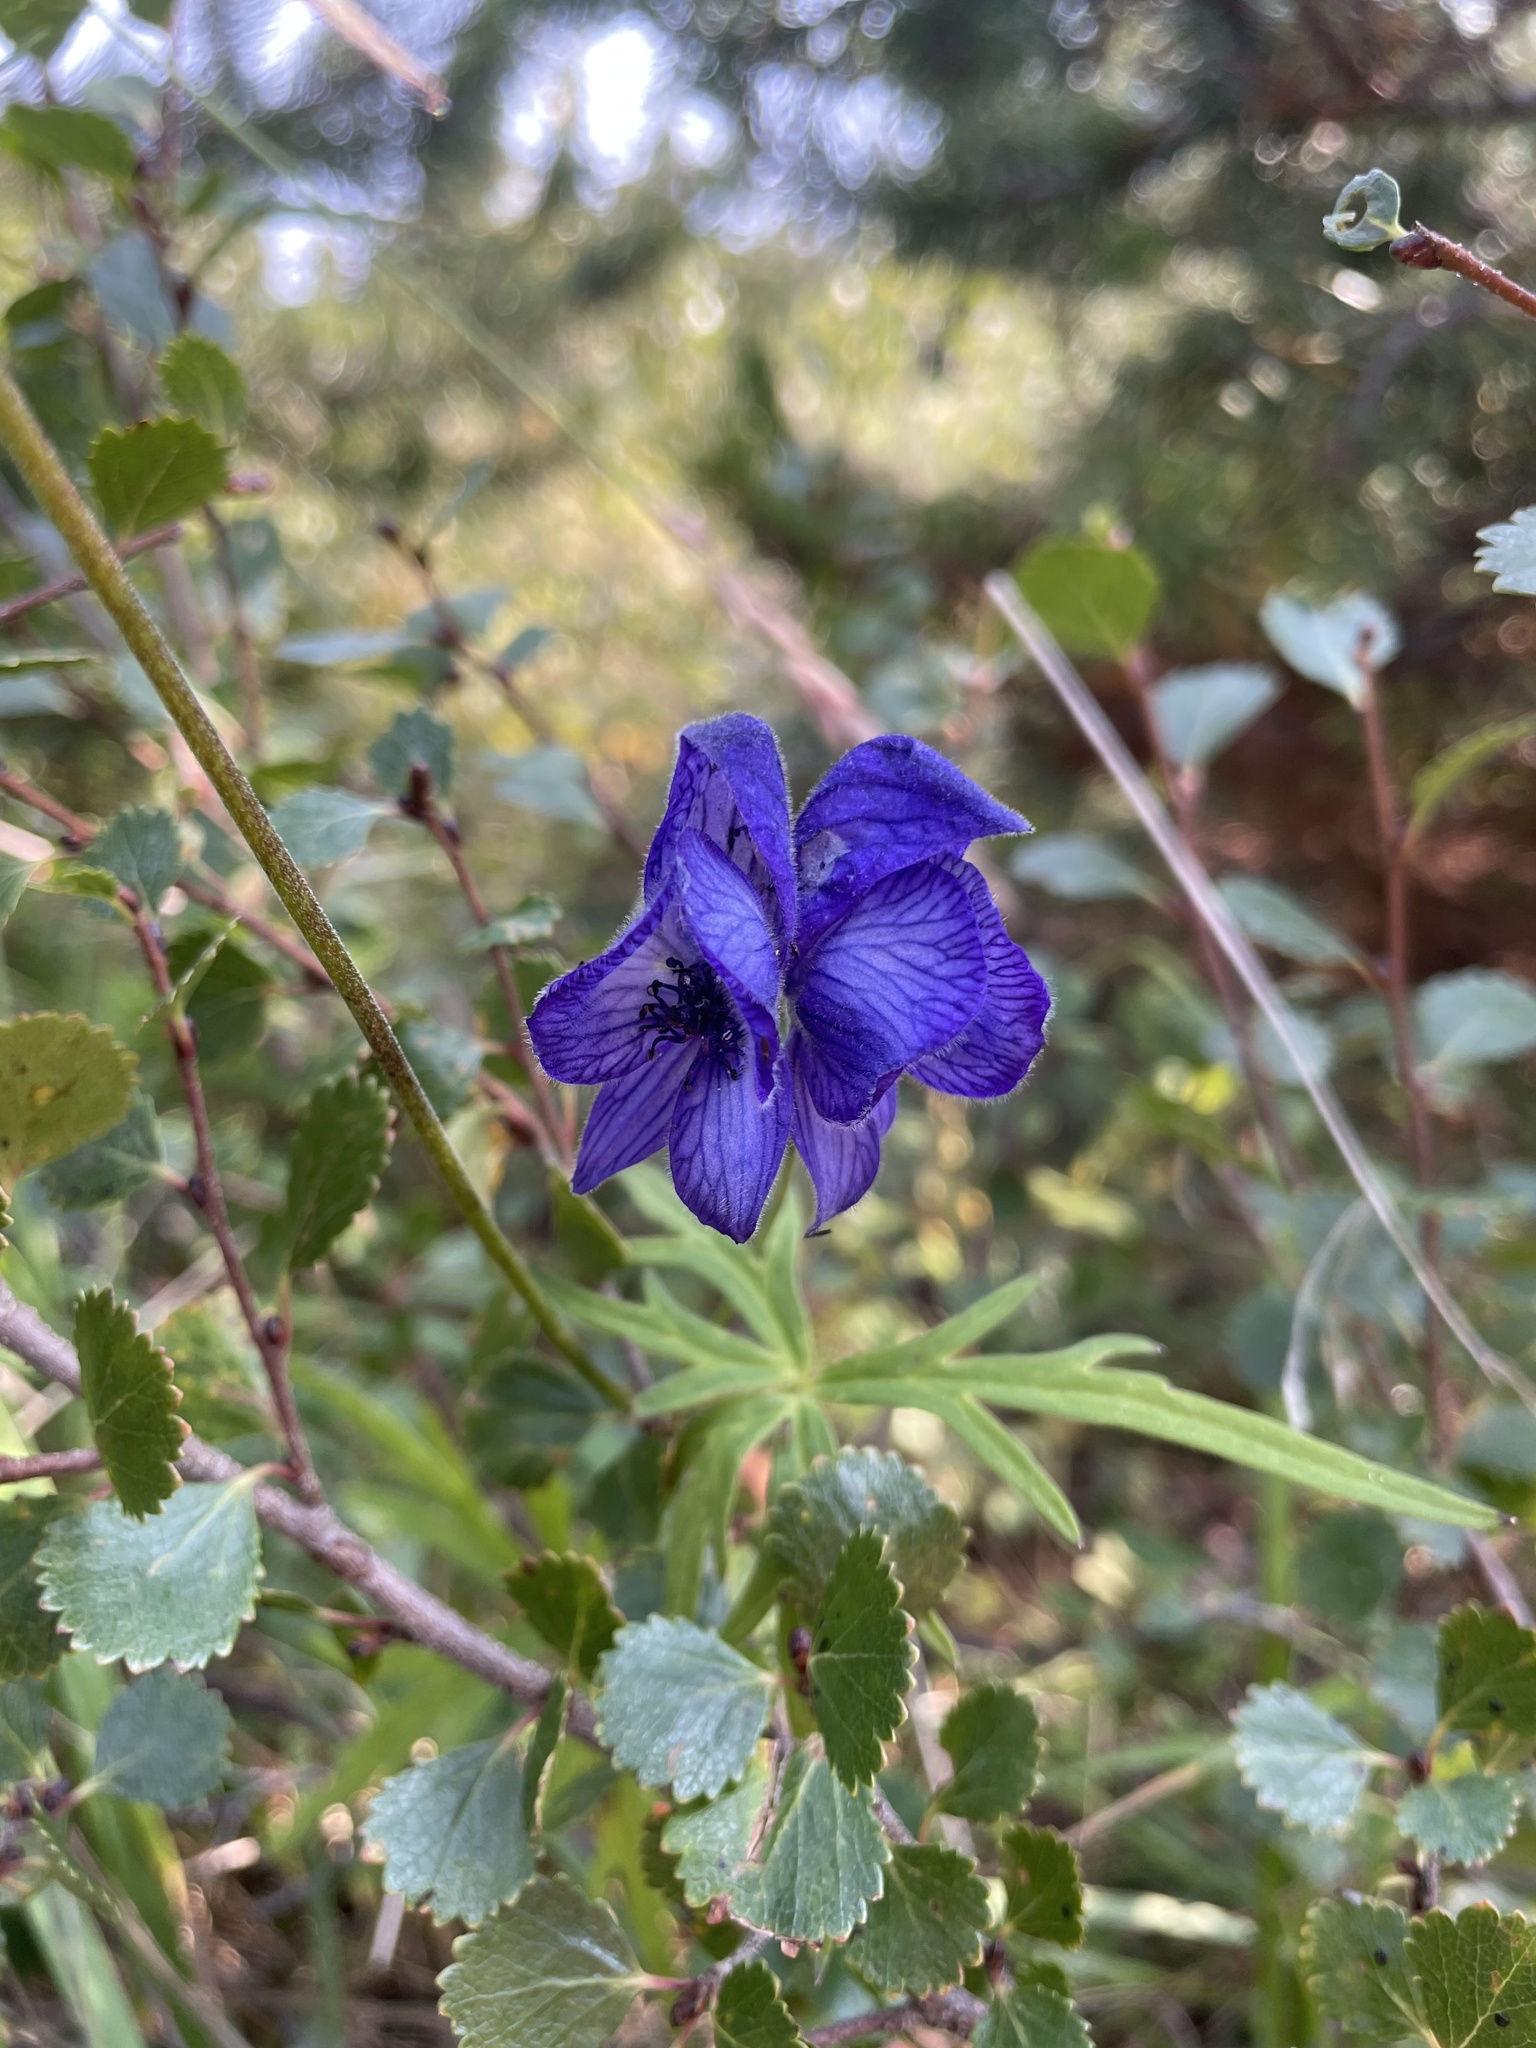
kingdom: Plantae
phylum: Tracheophyta
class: Magnoliopsida
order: Ranunculales
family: Ranunculaceae
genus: Aconitum
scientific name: Aconitum delphiniifolium
